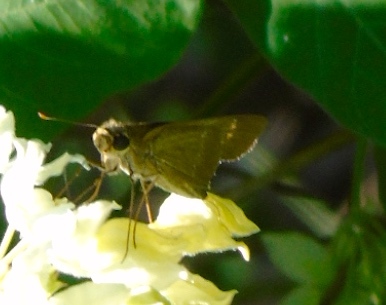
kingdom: Animalia
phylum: Arthropoda
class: Insecta
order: Lepidoptera
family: Hesperiidae
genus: Turesis
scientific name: Turesis lucas
